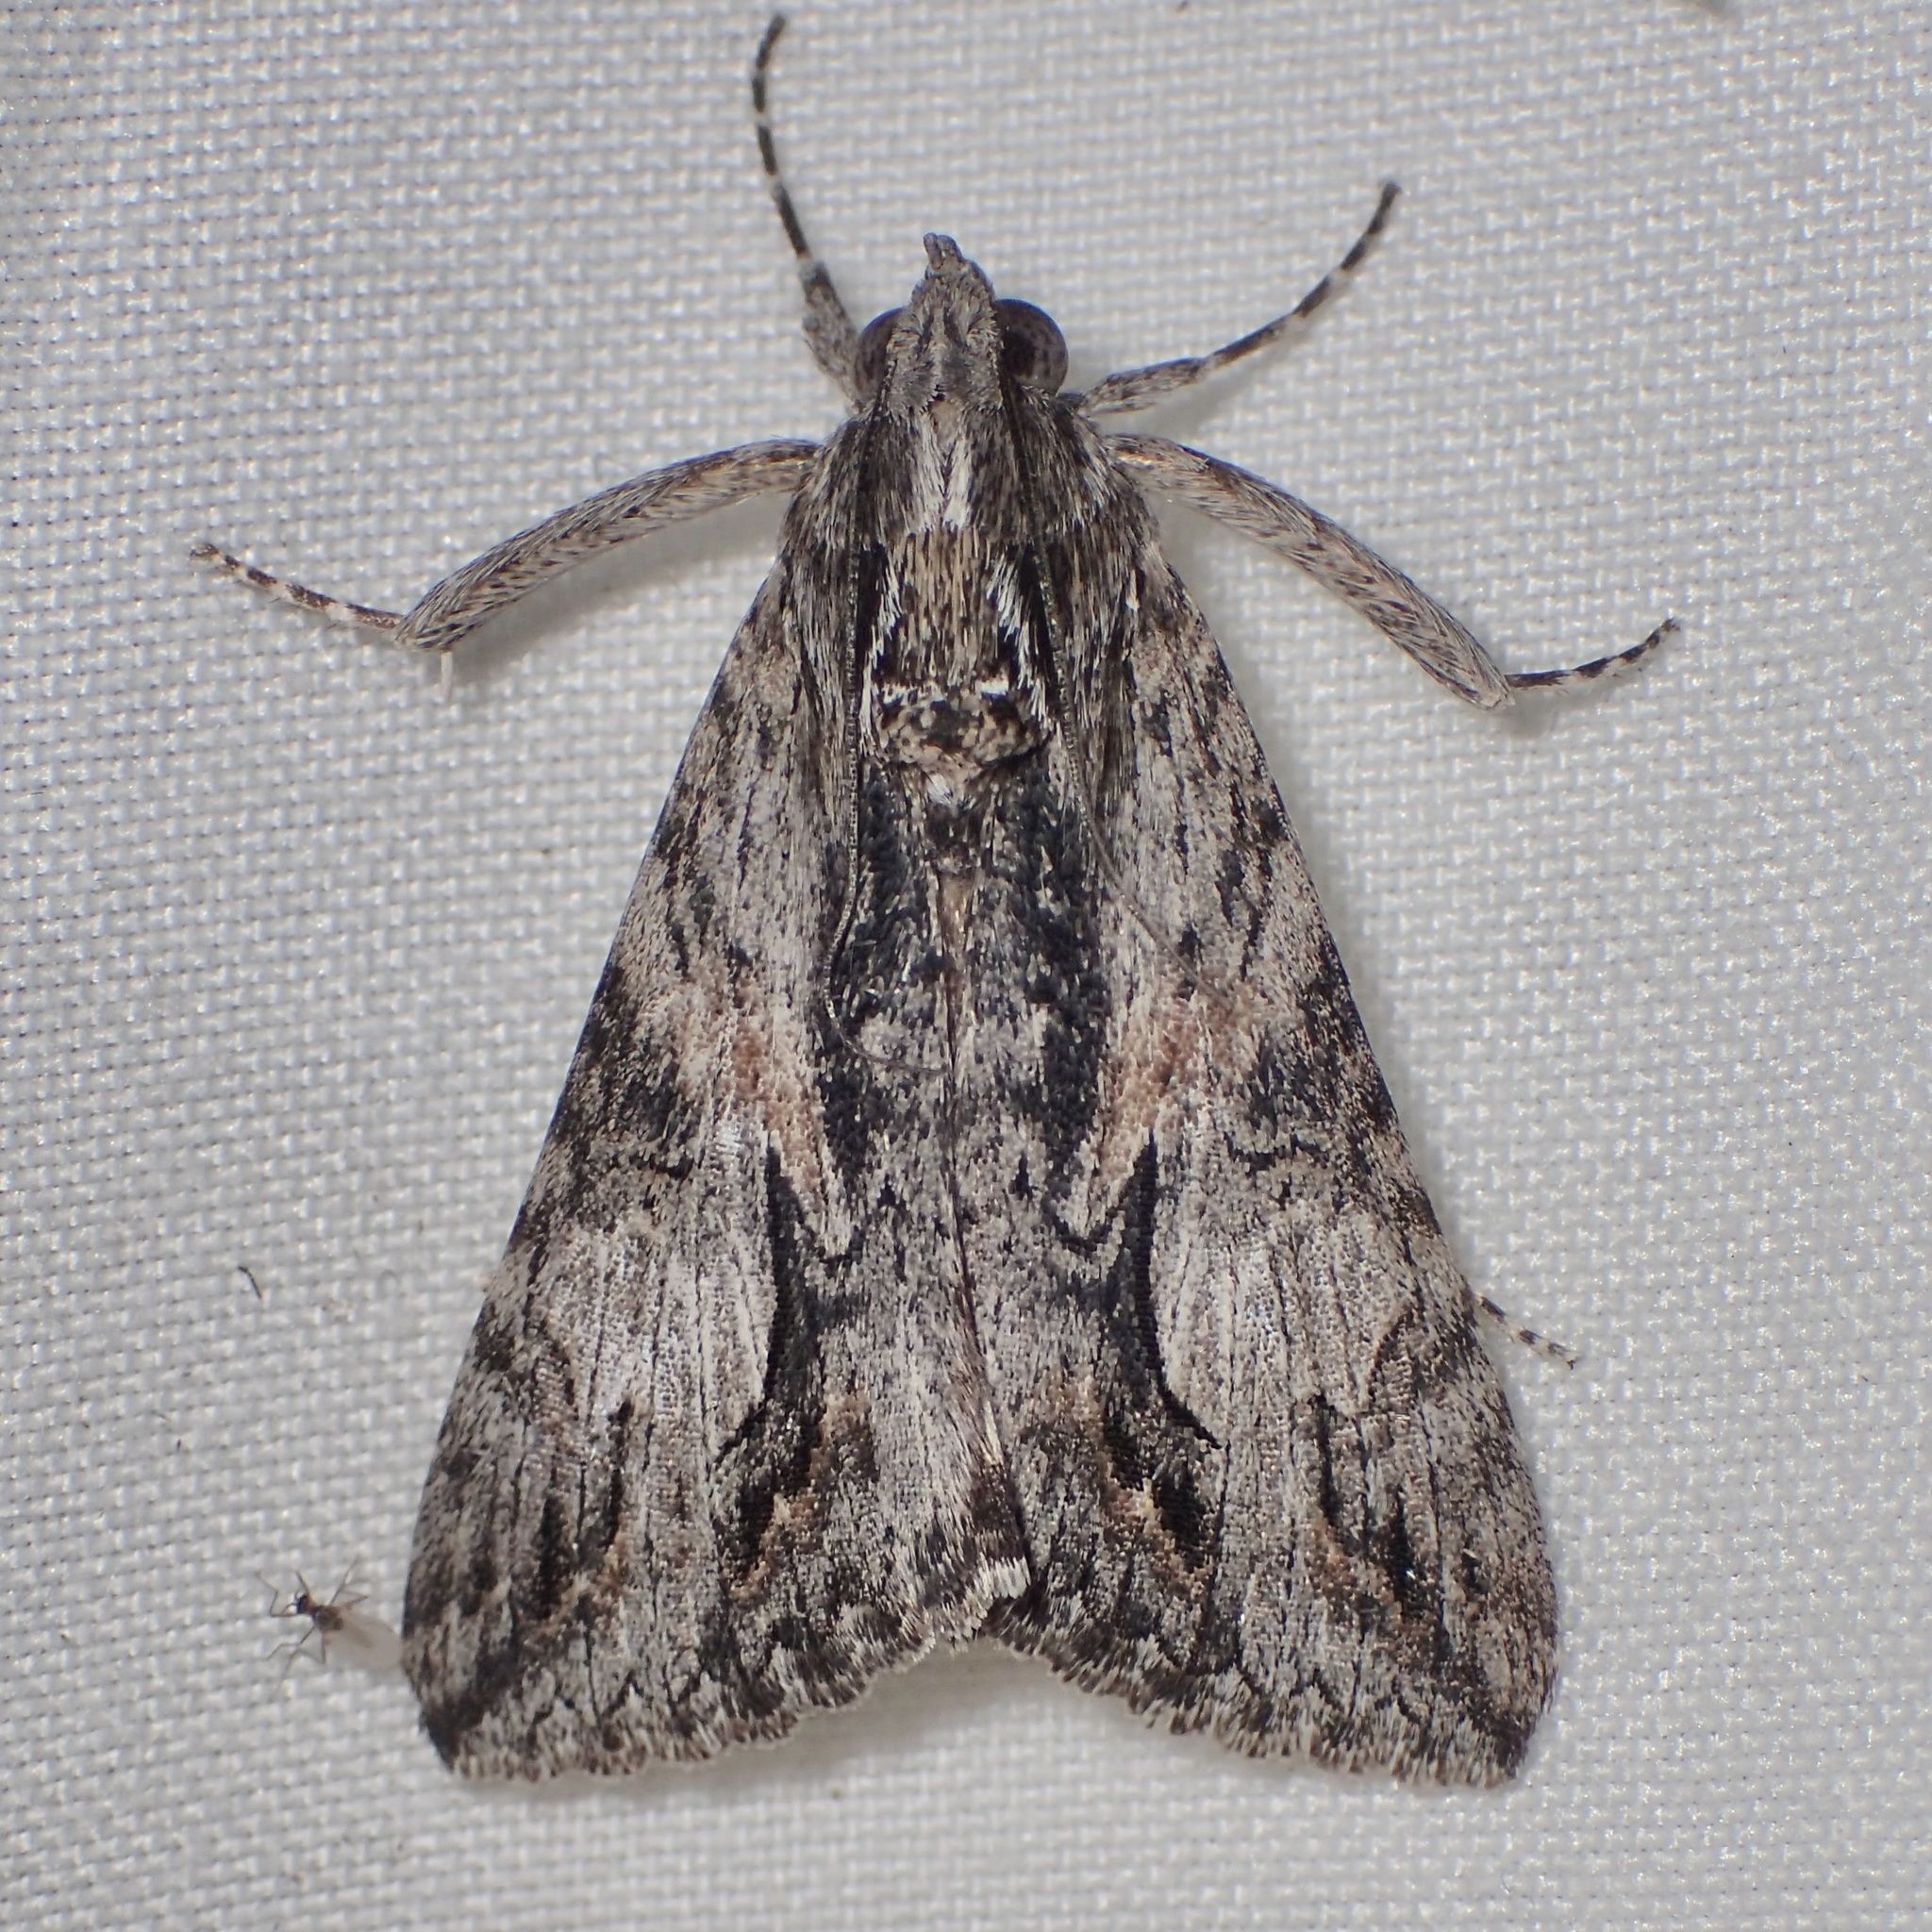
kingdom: Animalia
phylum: Arthropoda
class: Insecta
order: Lepidoptera
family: Erebidae
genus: Melipotis
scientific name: Melipotis jucunda
